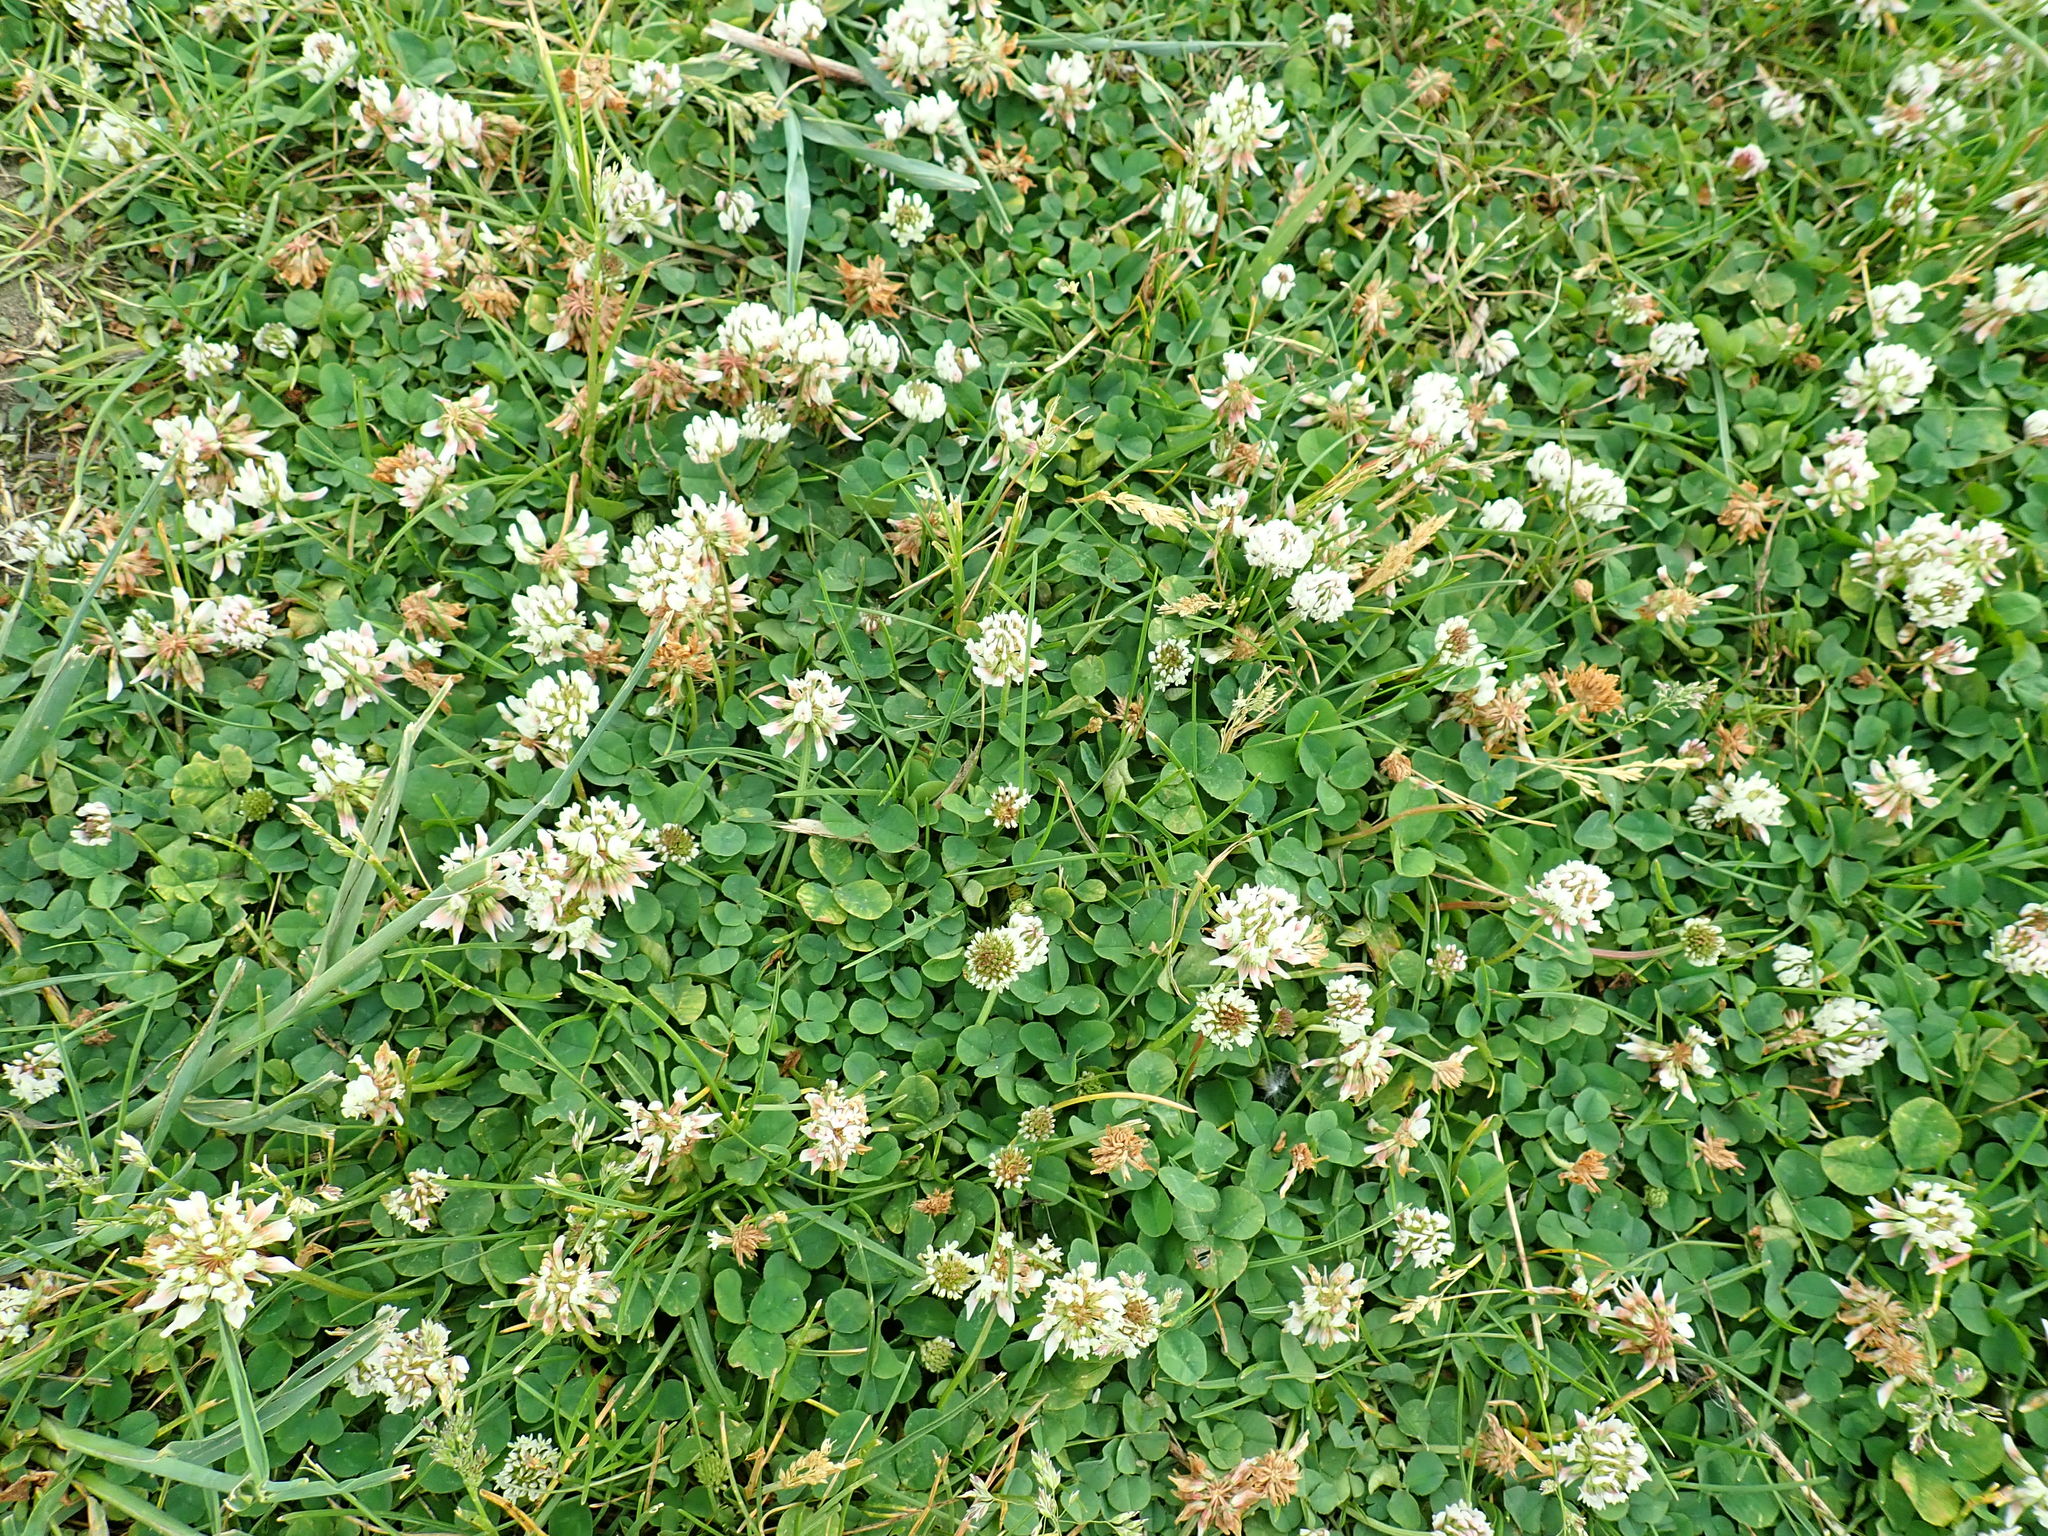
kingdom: Plantae
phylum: Tracheophyta
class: Magnoliopsida
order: Fabales
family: Fabaceae
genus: Trifolium
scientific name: Trifolium repens
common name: White clover
